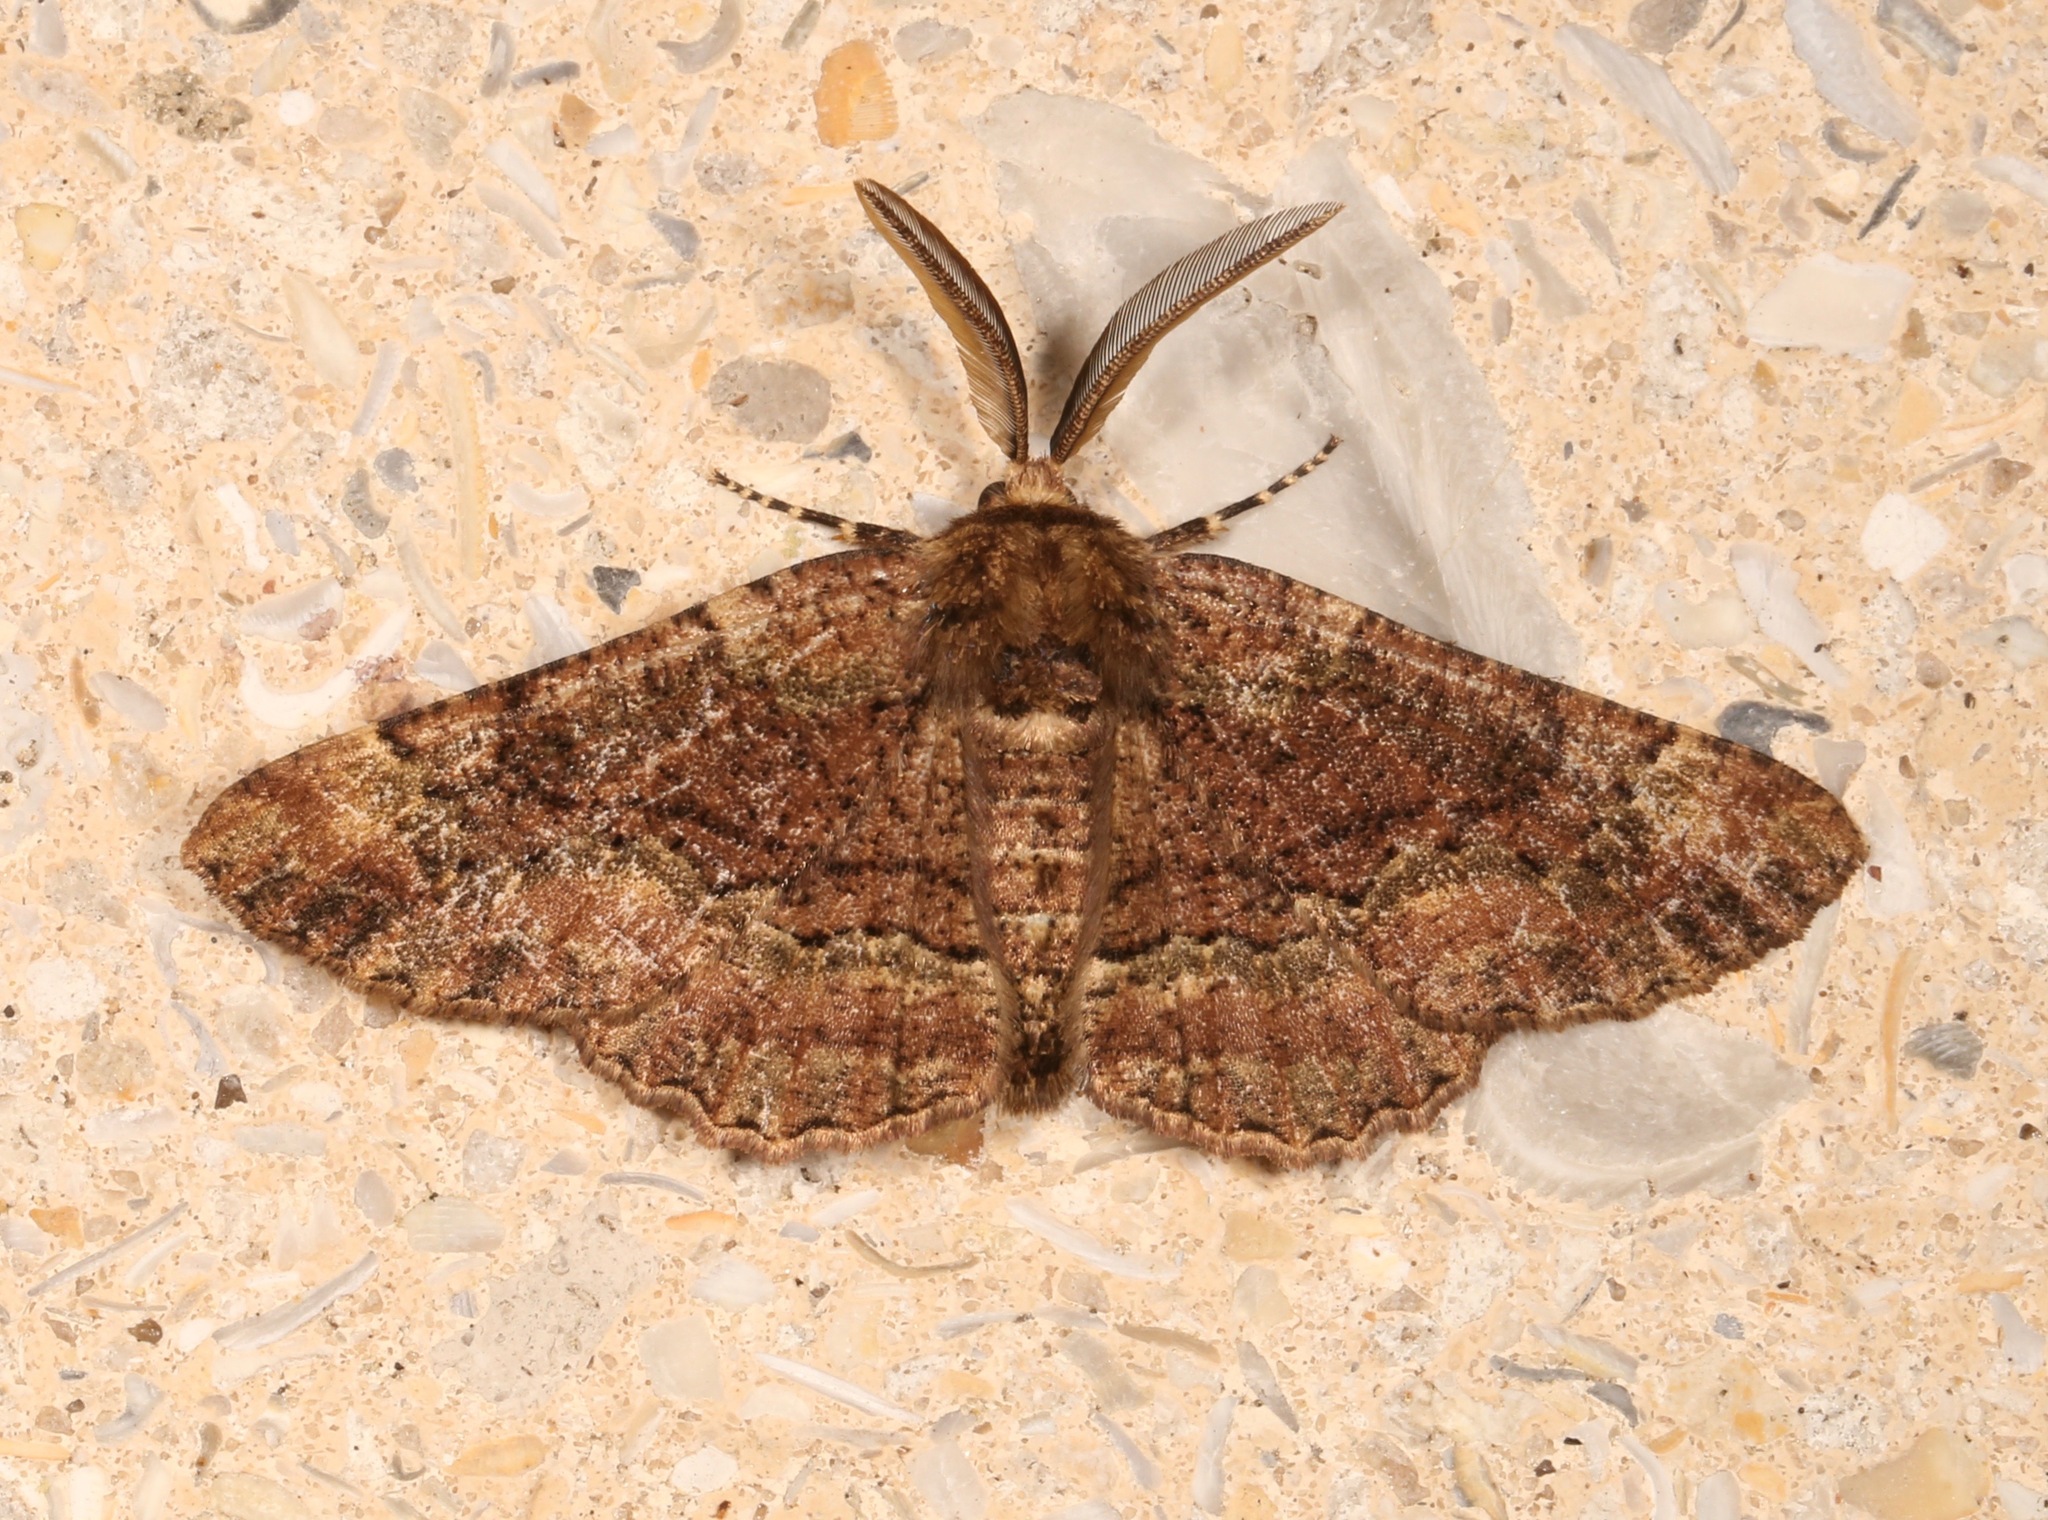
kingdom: Animalia
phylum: Arthropoda
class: Insecta
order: Lepidoptera
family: Geometridae
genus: Phaeoura
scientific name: Phaeoura quernaria
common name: Oak beauty
